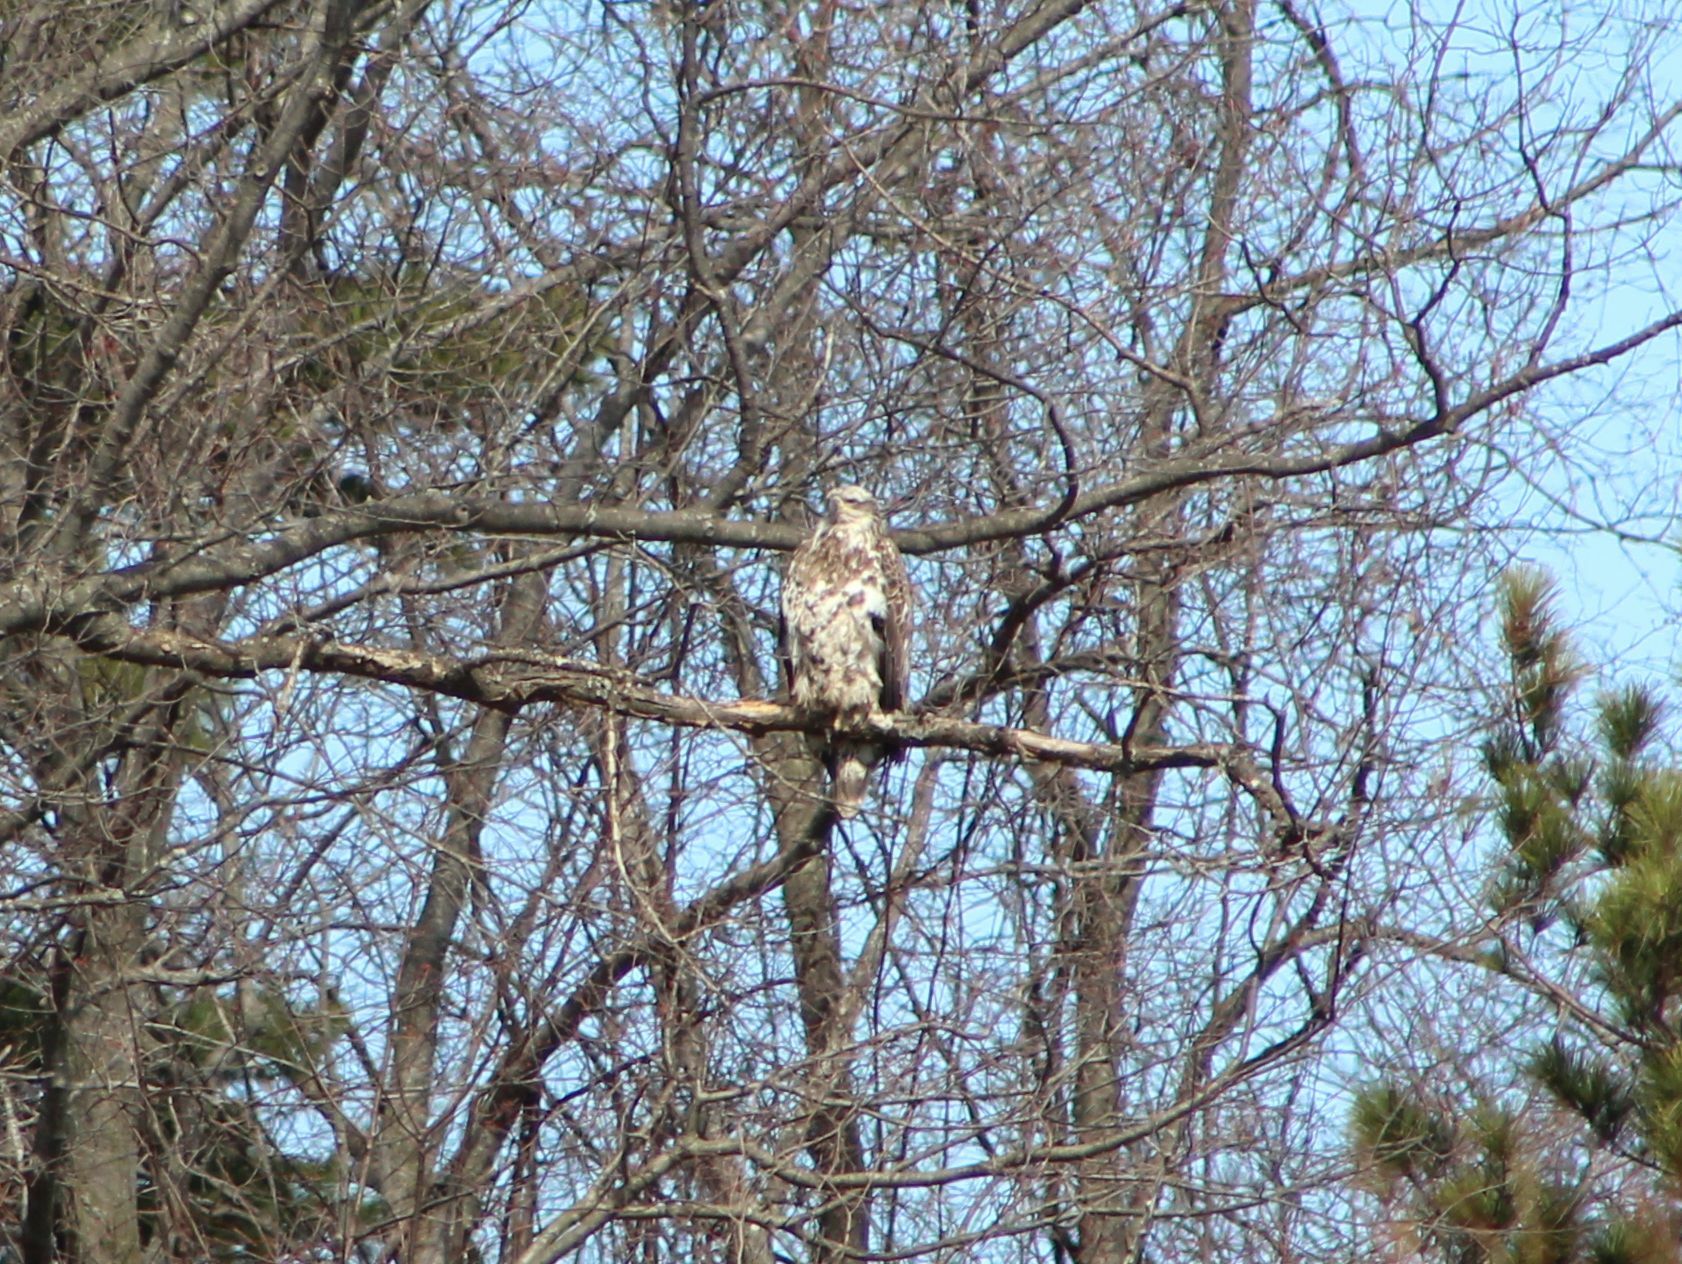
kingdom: Animalia
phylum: Chordata
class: Aves
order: Accipitriformes
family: Accipitridae
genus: Haliaeetus
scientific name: Haliaeetus leucocephalus
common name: Bald eagle
